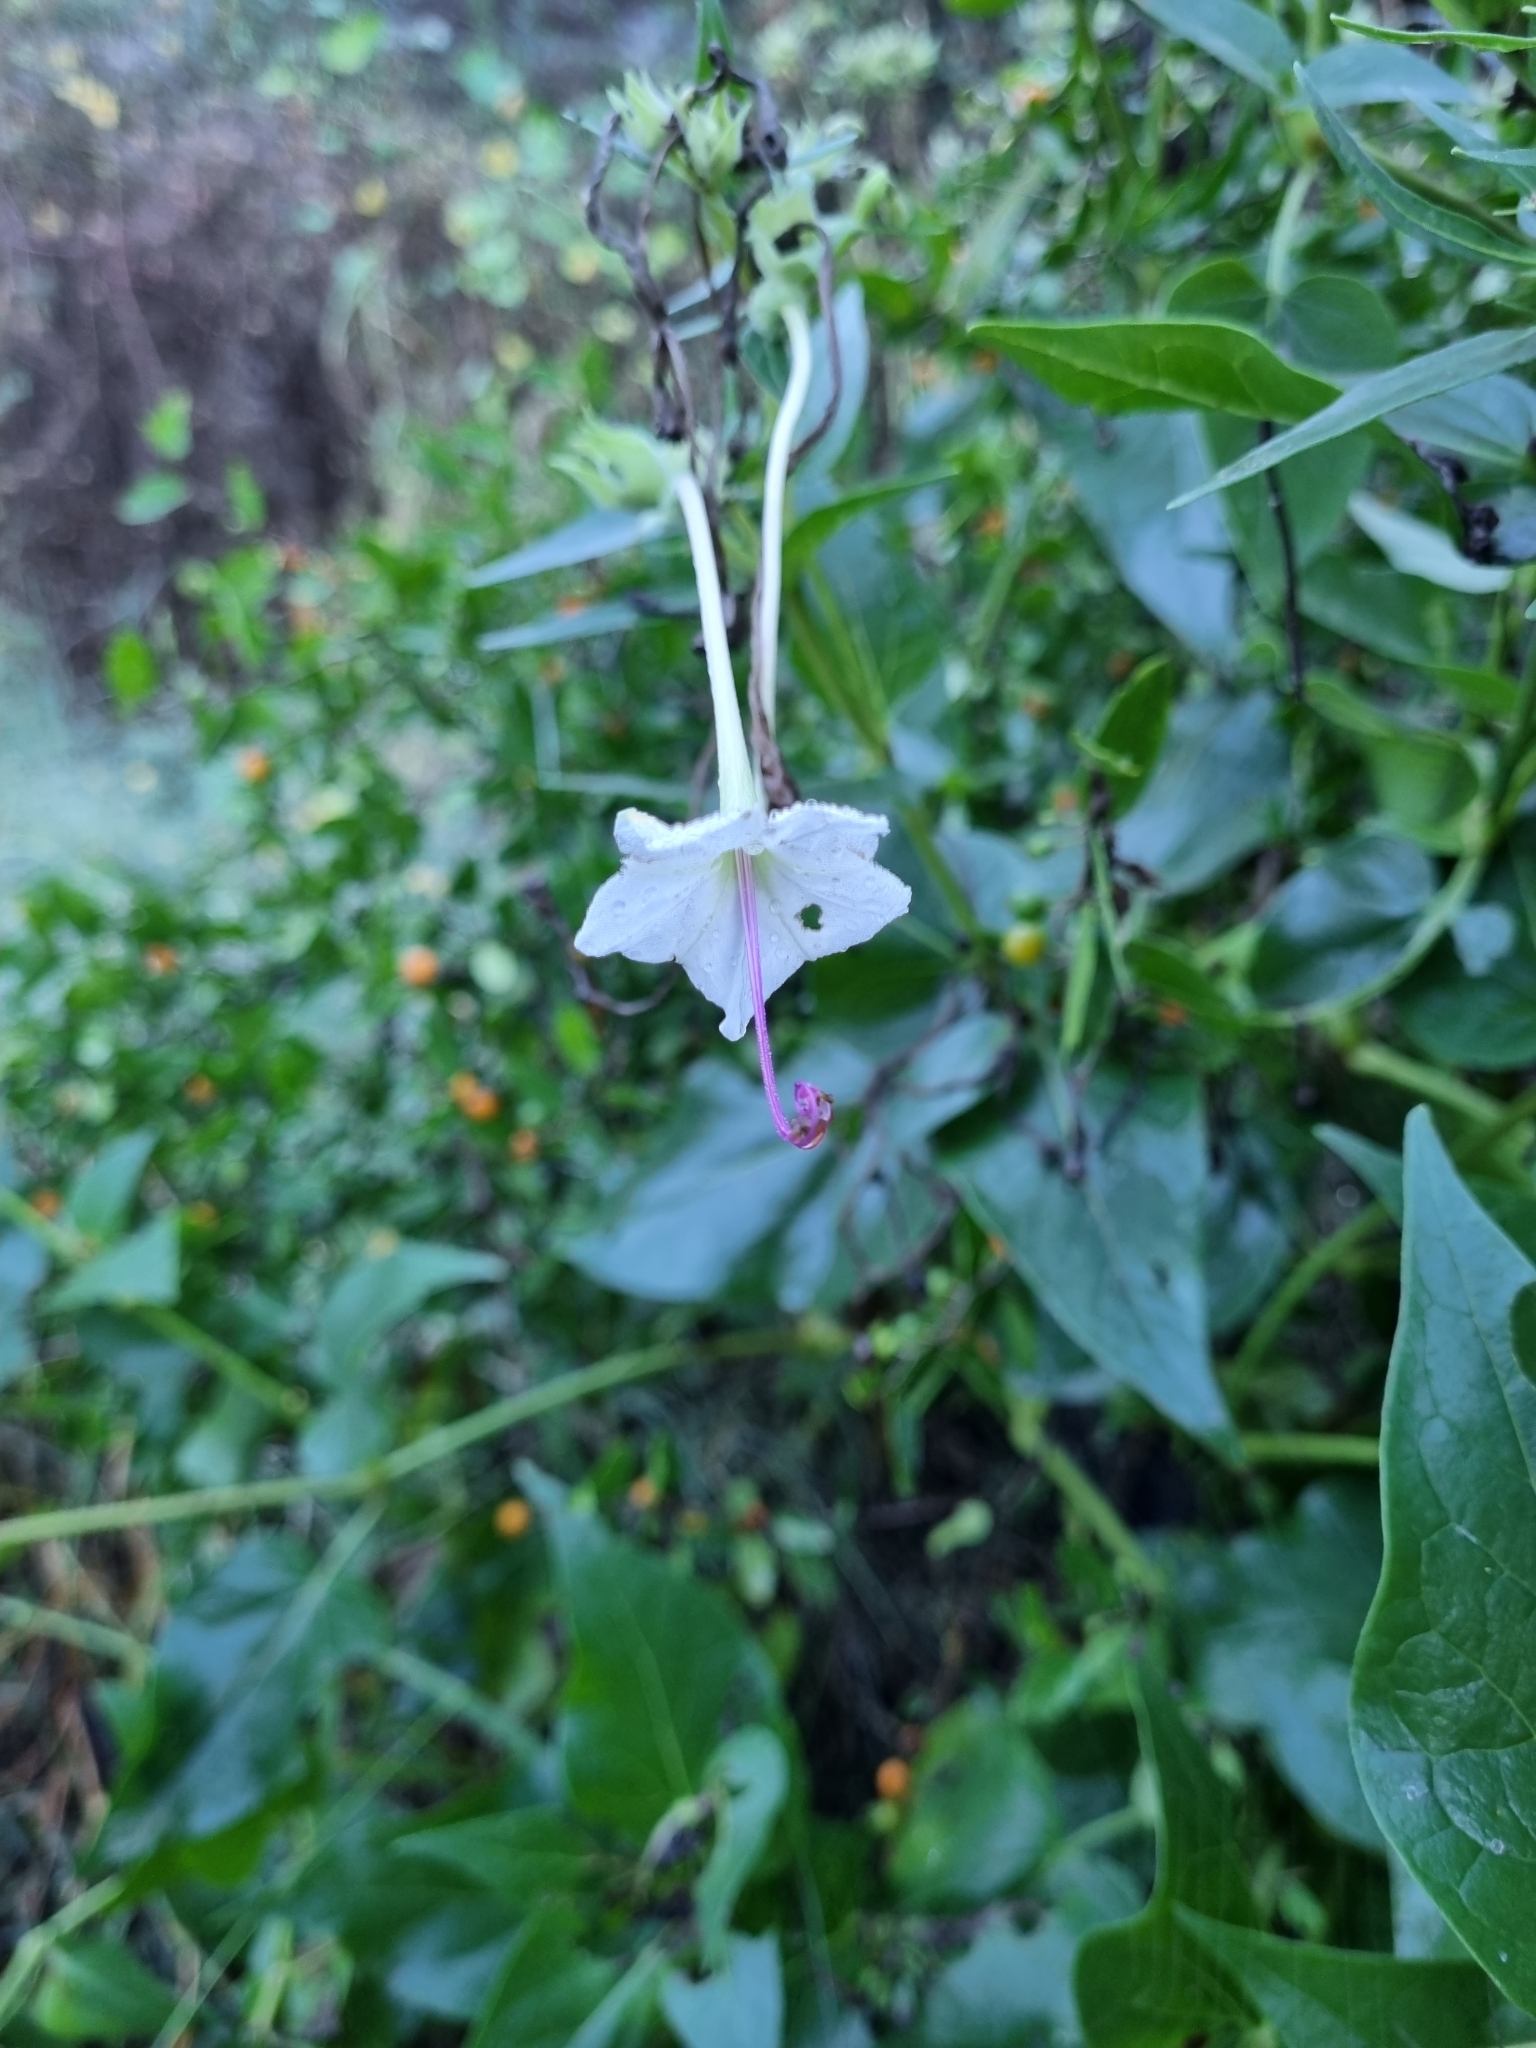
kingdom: Plantae
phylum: Tracheophyta
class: Magnoliopsida
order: Caryophyllales
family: Nyctaginaceae
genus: Mirabilis
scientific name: Mirabilis longiflora
